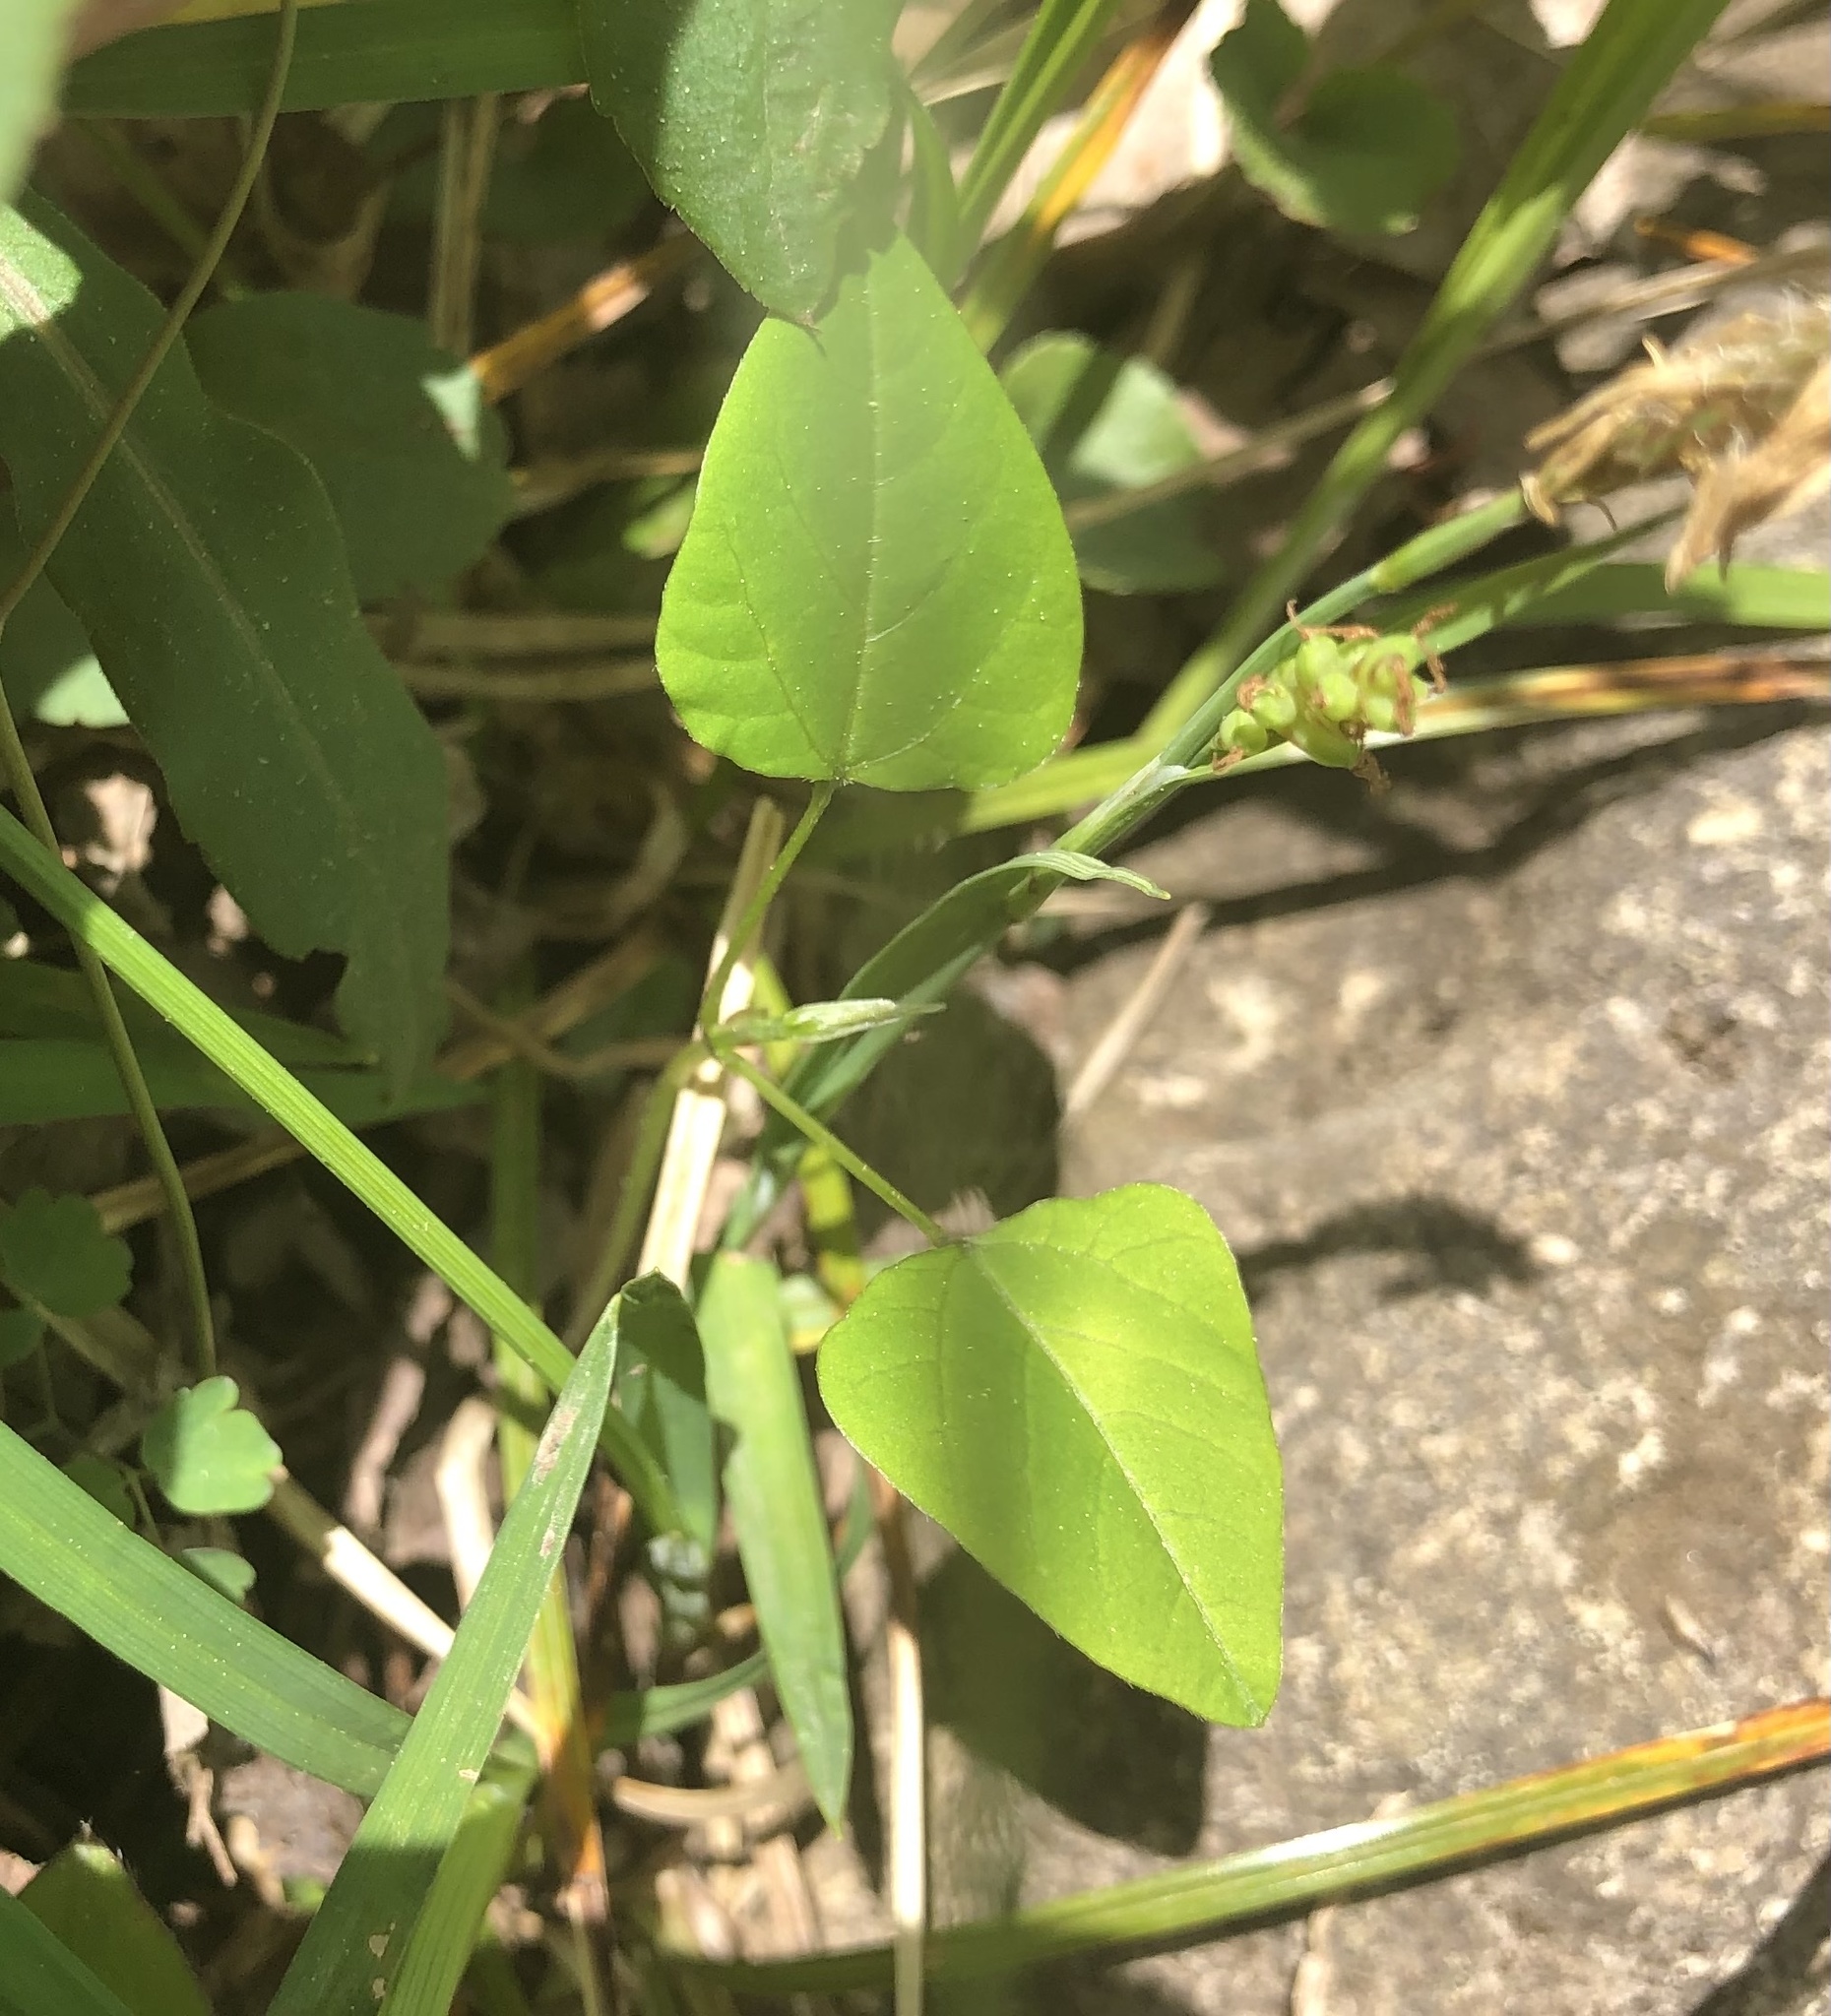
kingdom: Plantae
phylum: Tracheophyta
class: Magnoliopsida
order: Fabales
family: Fabaceae
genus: Amphicarpaea
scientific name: Amphicarpaea bracteata
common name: American hog peanut
